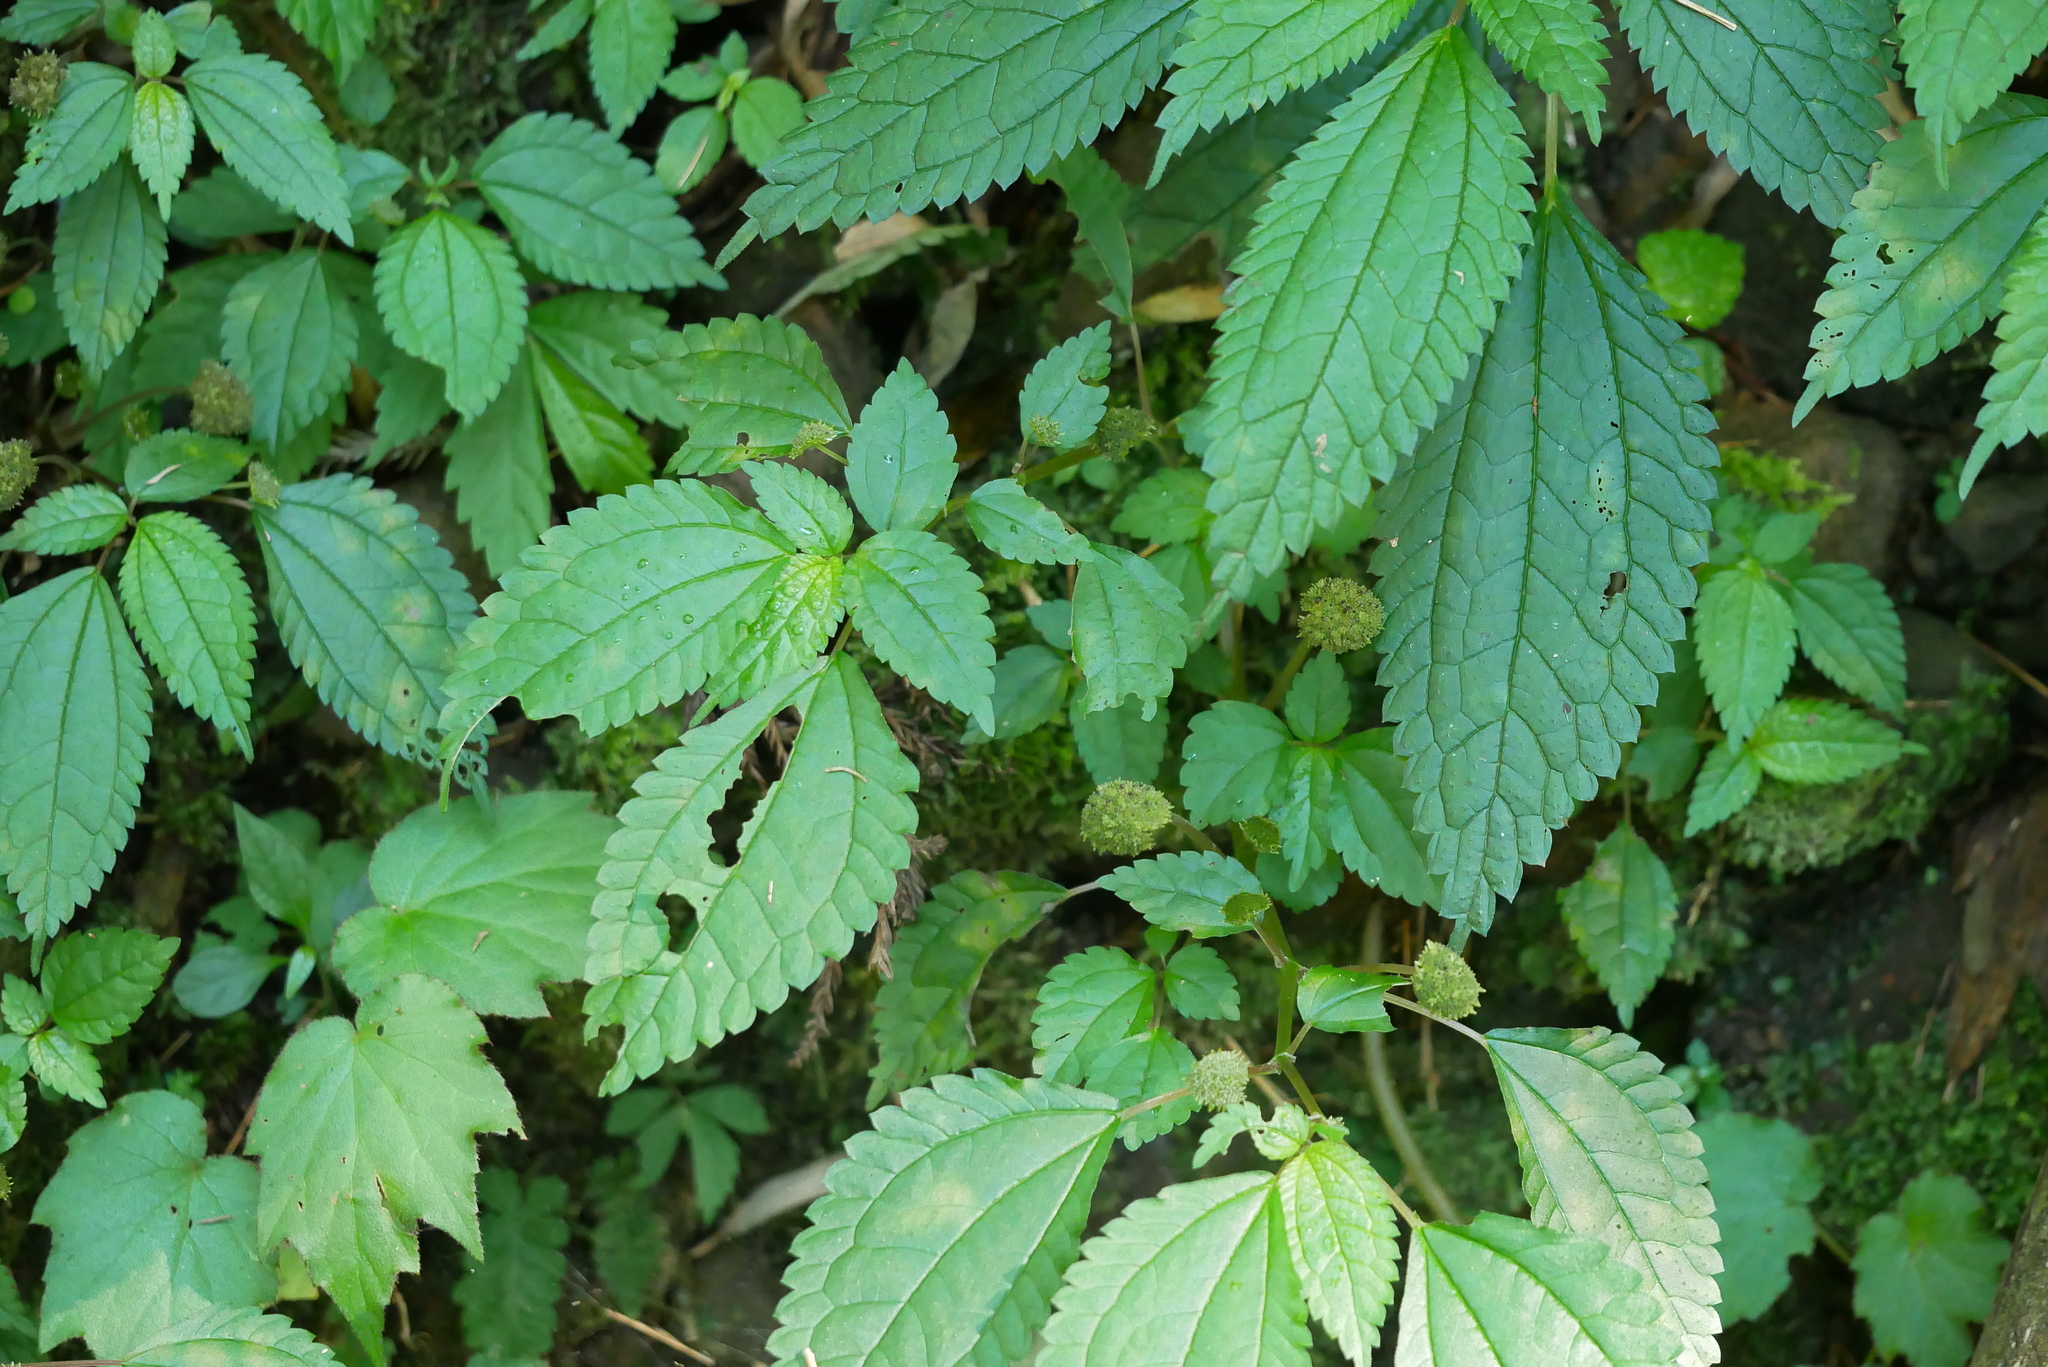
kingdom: Plantae
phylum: Tracheophyta
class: Magnoliopsida
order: Rosales
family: Urticaceae
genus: Lecanthus
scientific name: Lecanthus peduncularis
